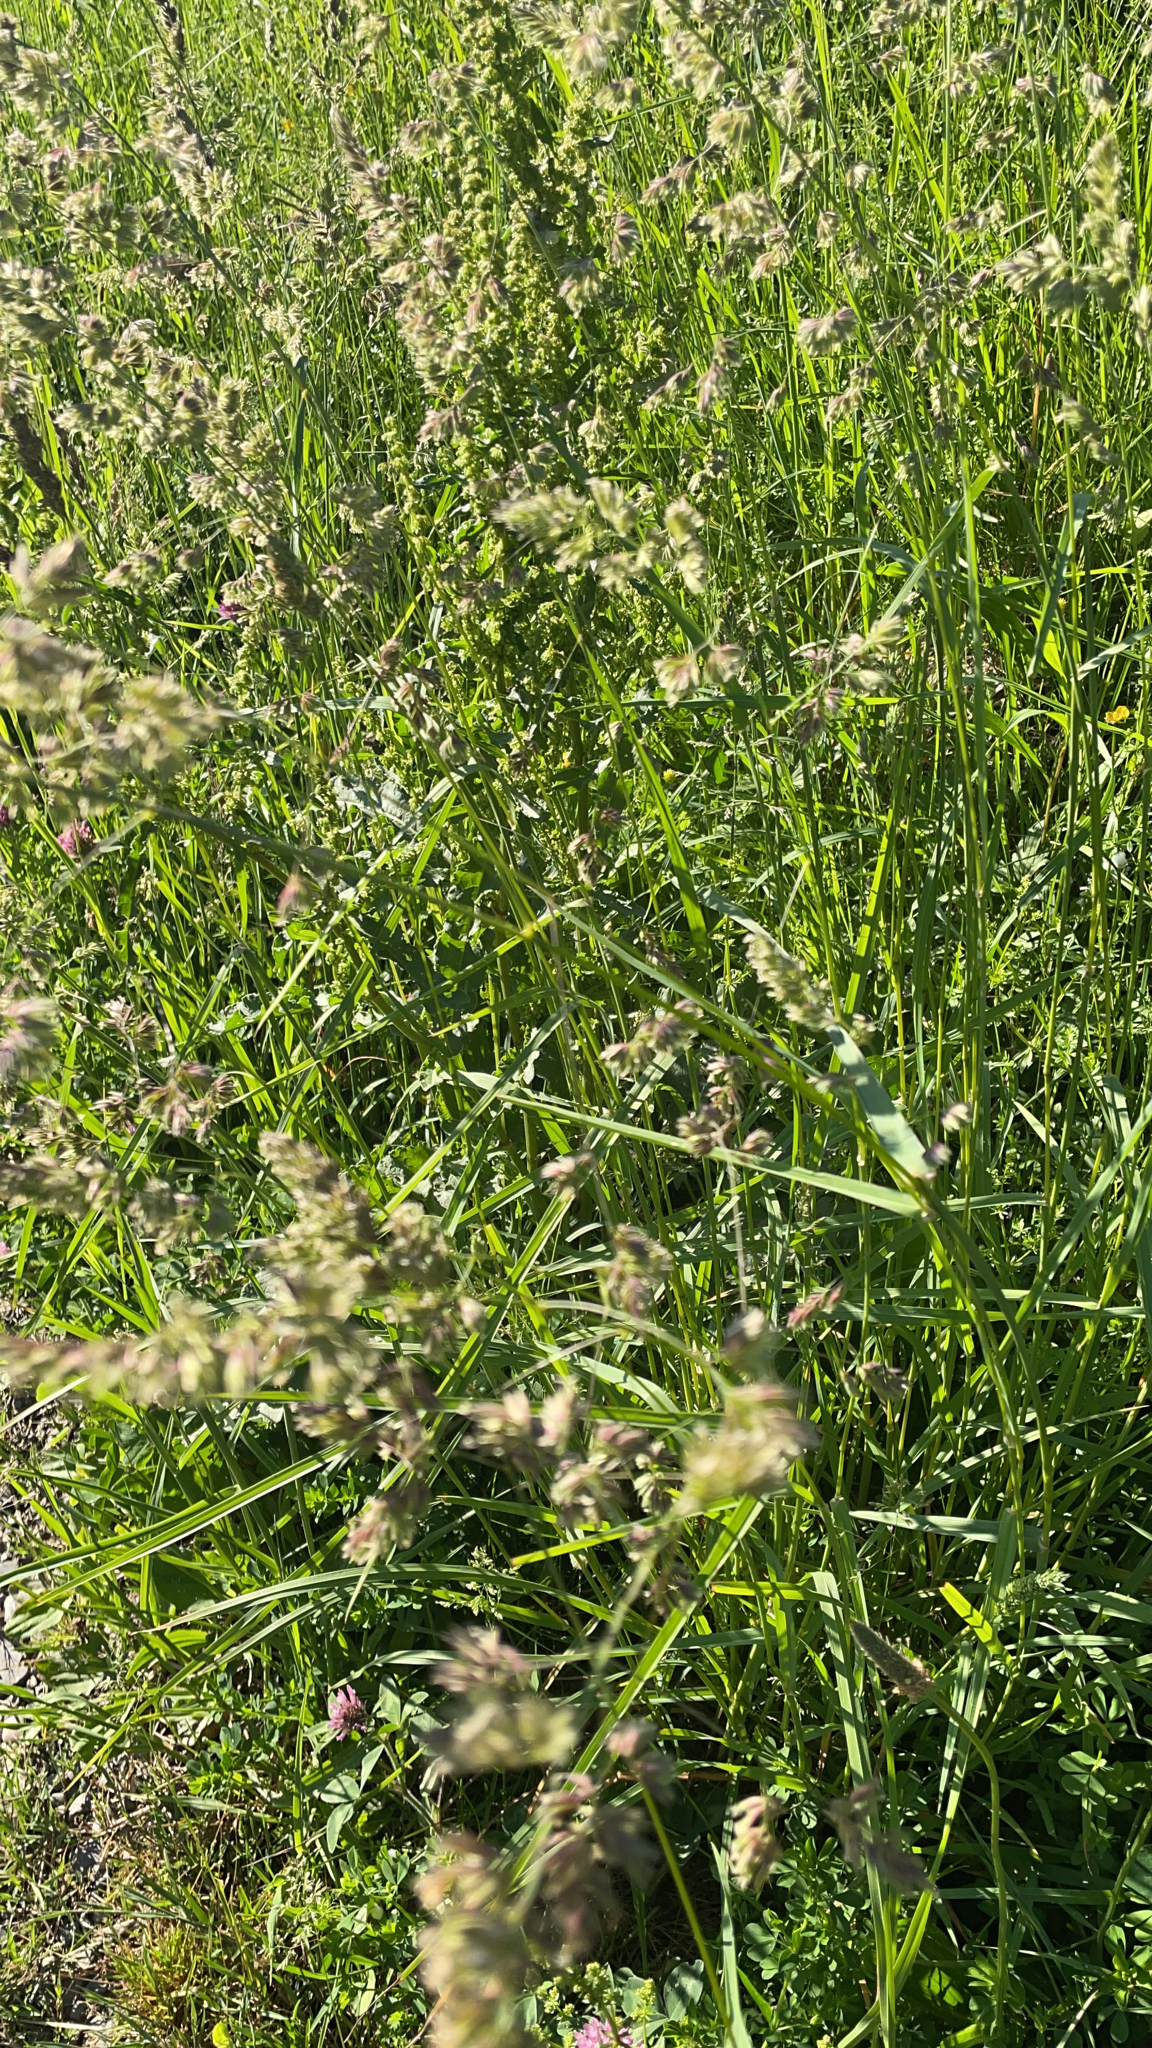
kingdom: Plantae
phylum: Tracheophyta
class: Liliopsida
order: Poales
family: Poaceae
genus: Dactylis
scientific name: Dactylis glomerata
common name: Orchardgrass
